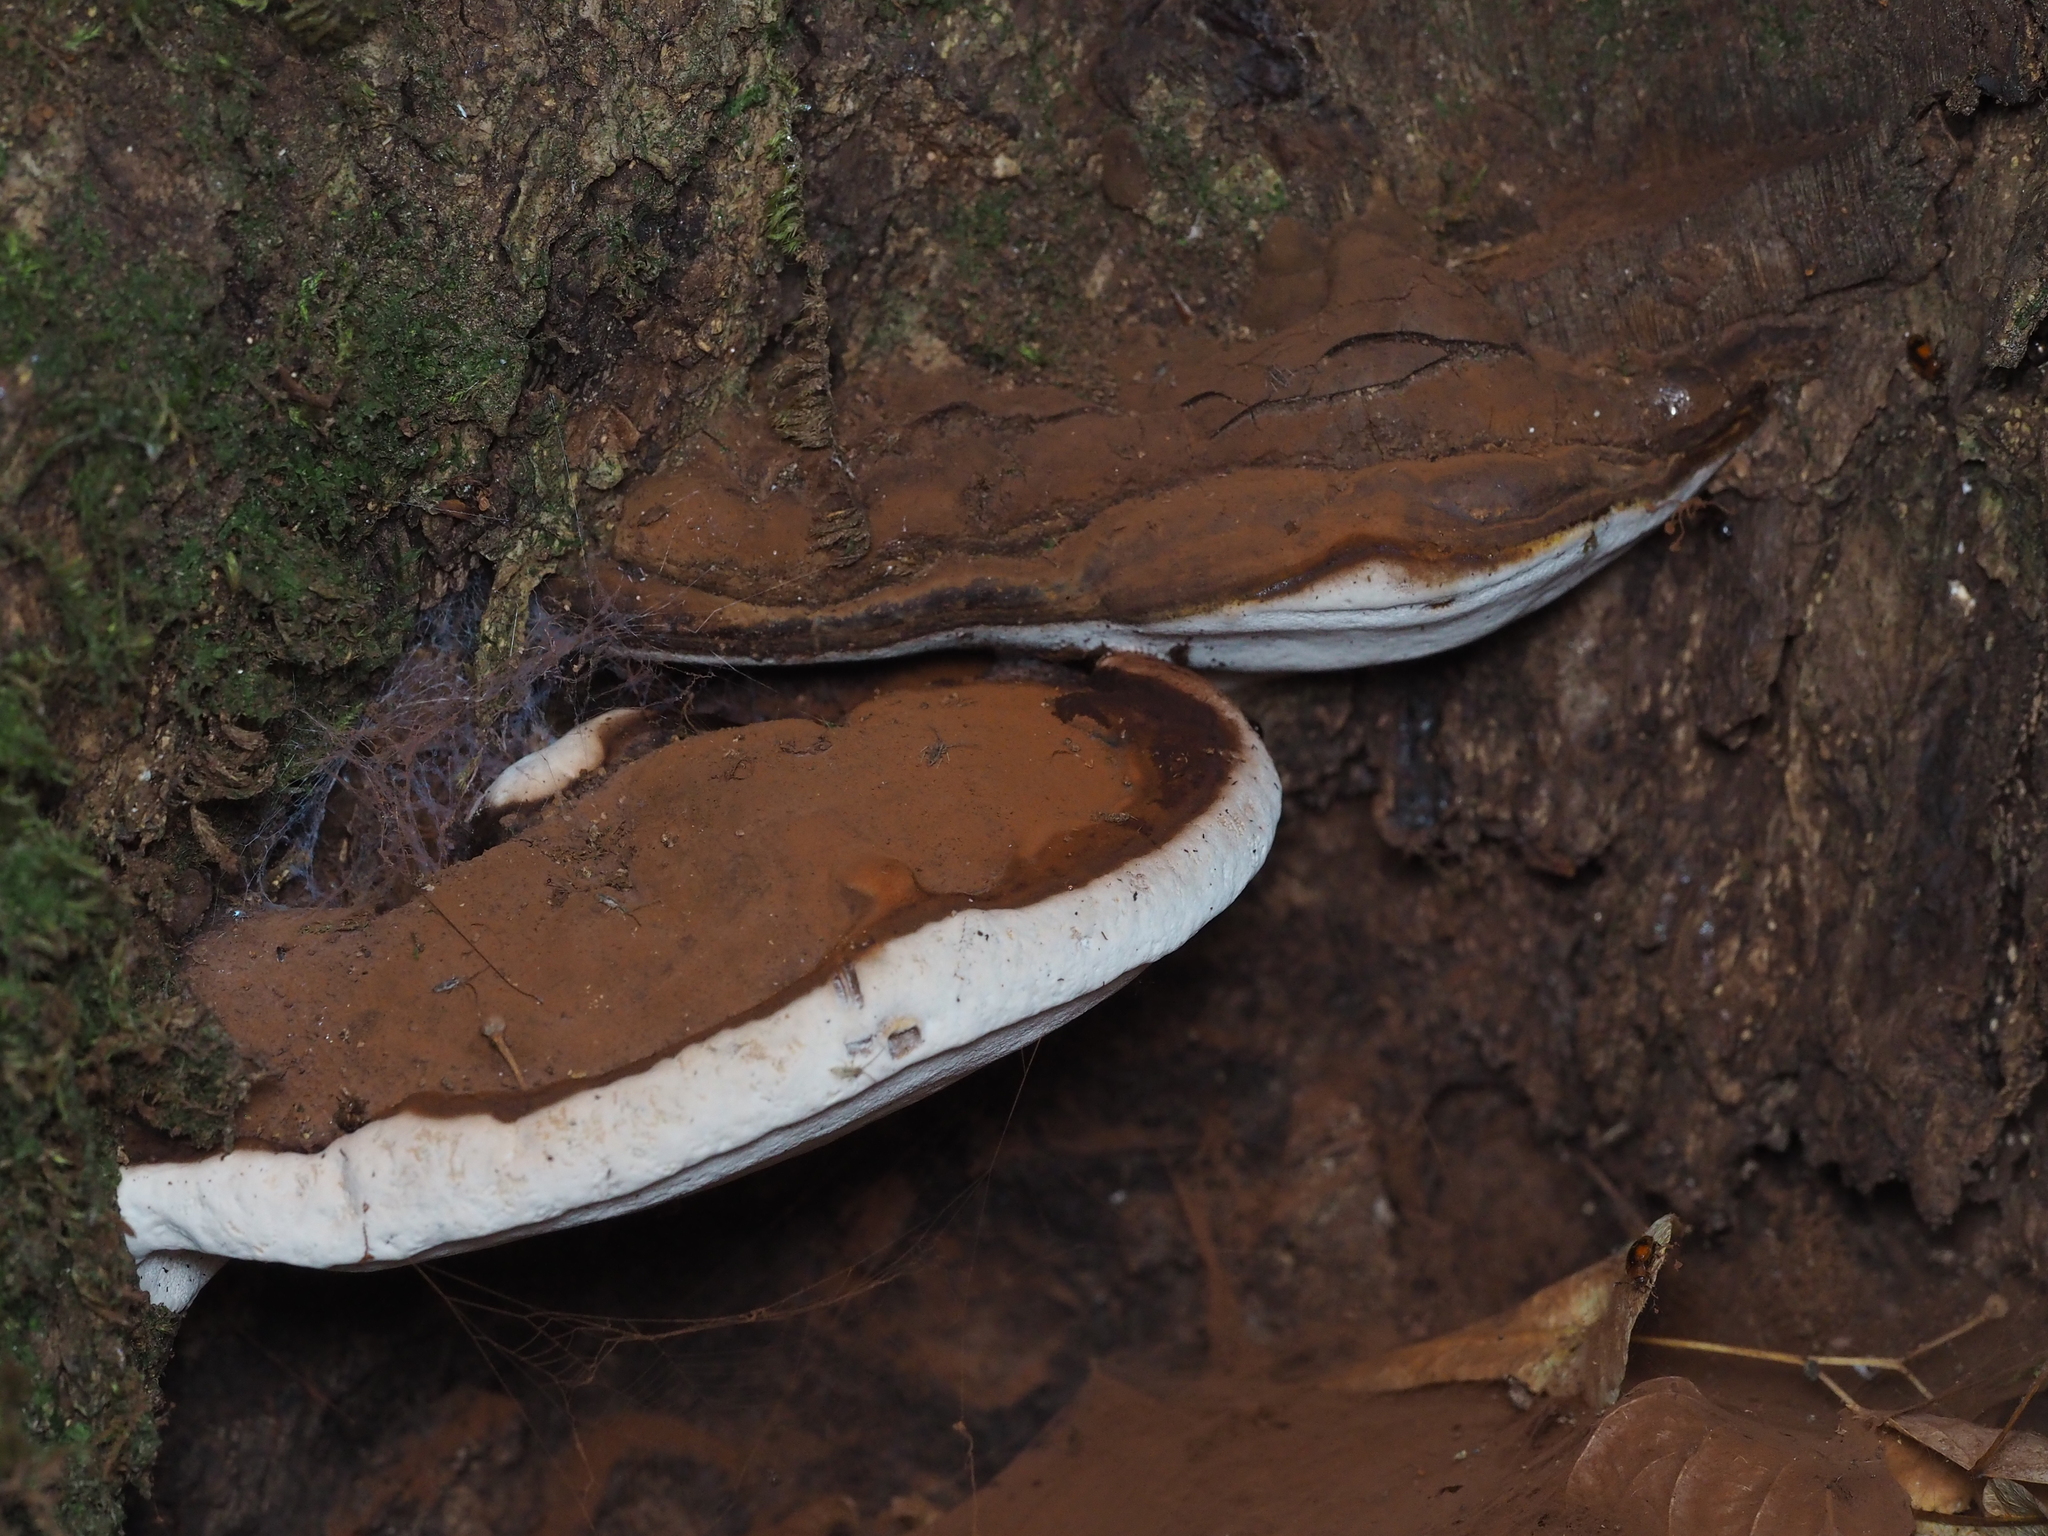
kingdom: Fungi
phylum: Basidiomycota
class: Agaricomycetes
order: Polyporales
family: Polyporaceae
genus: Ganoderma
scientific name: Ganoderma applanatum
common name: Artist's bracket
